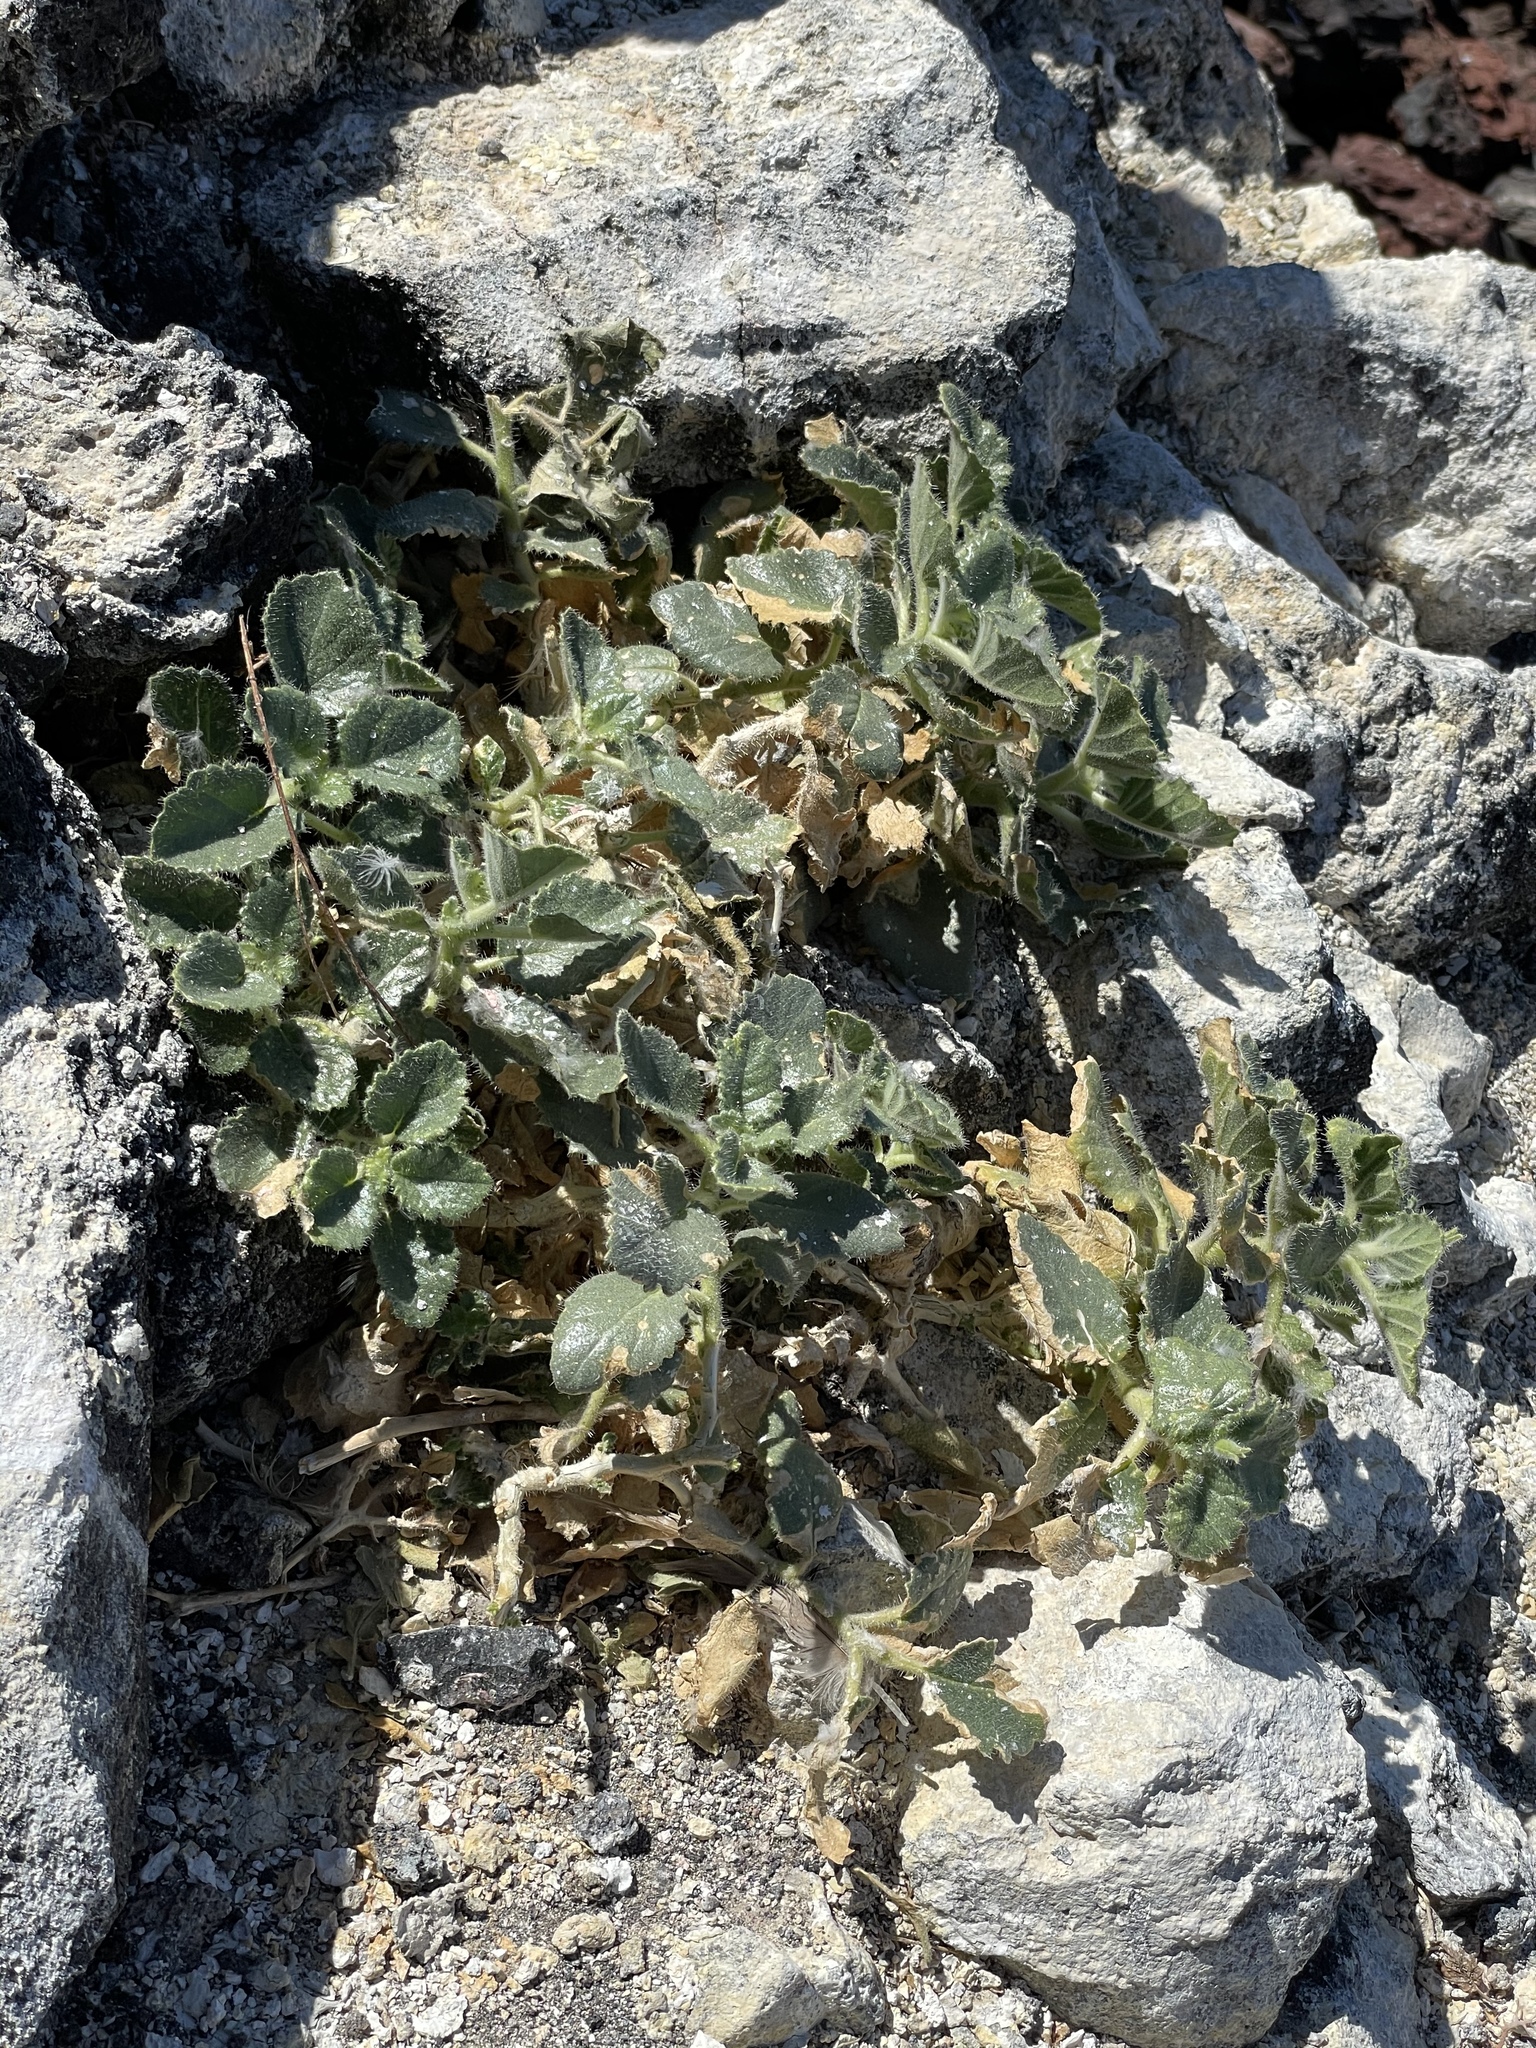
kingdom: Plantae
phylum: Tracheophyta
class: Magnoliopsida
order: Cornales
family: Loasaceae
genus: Eucnide
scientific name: Eucnide urens
